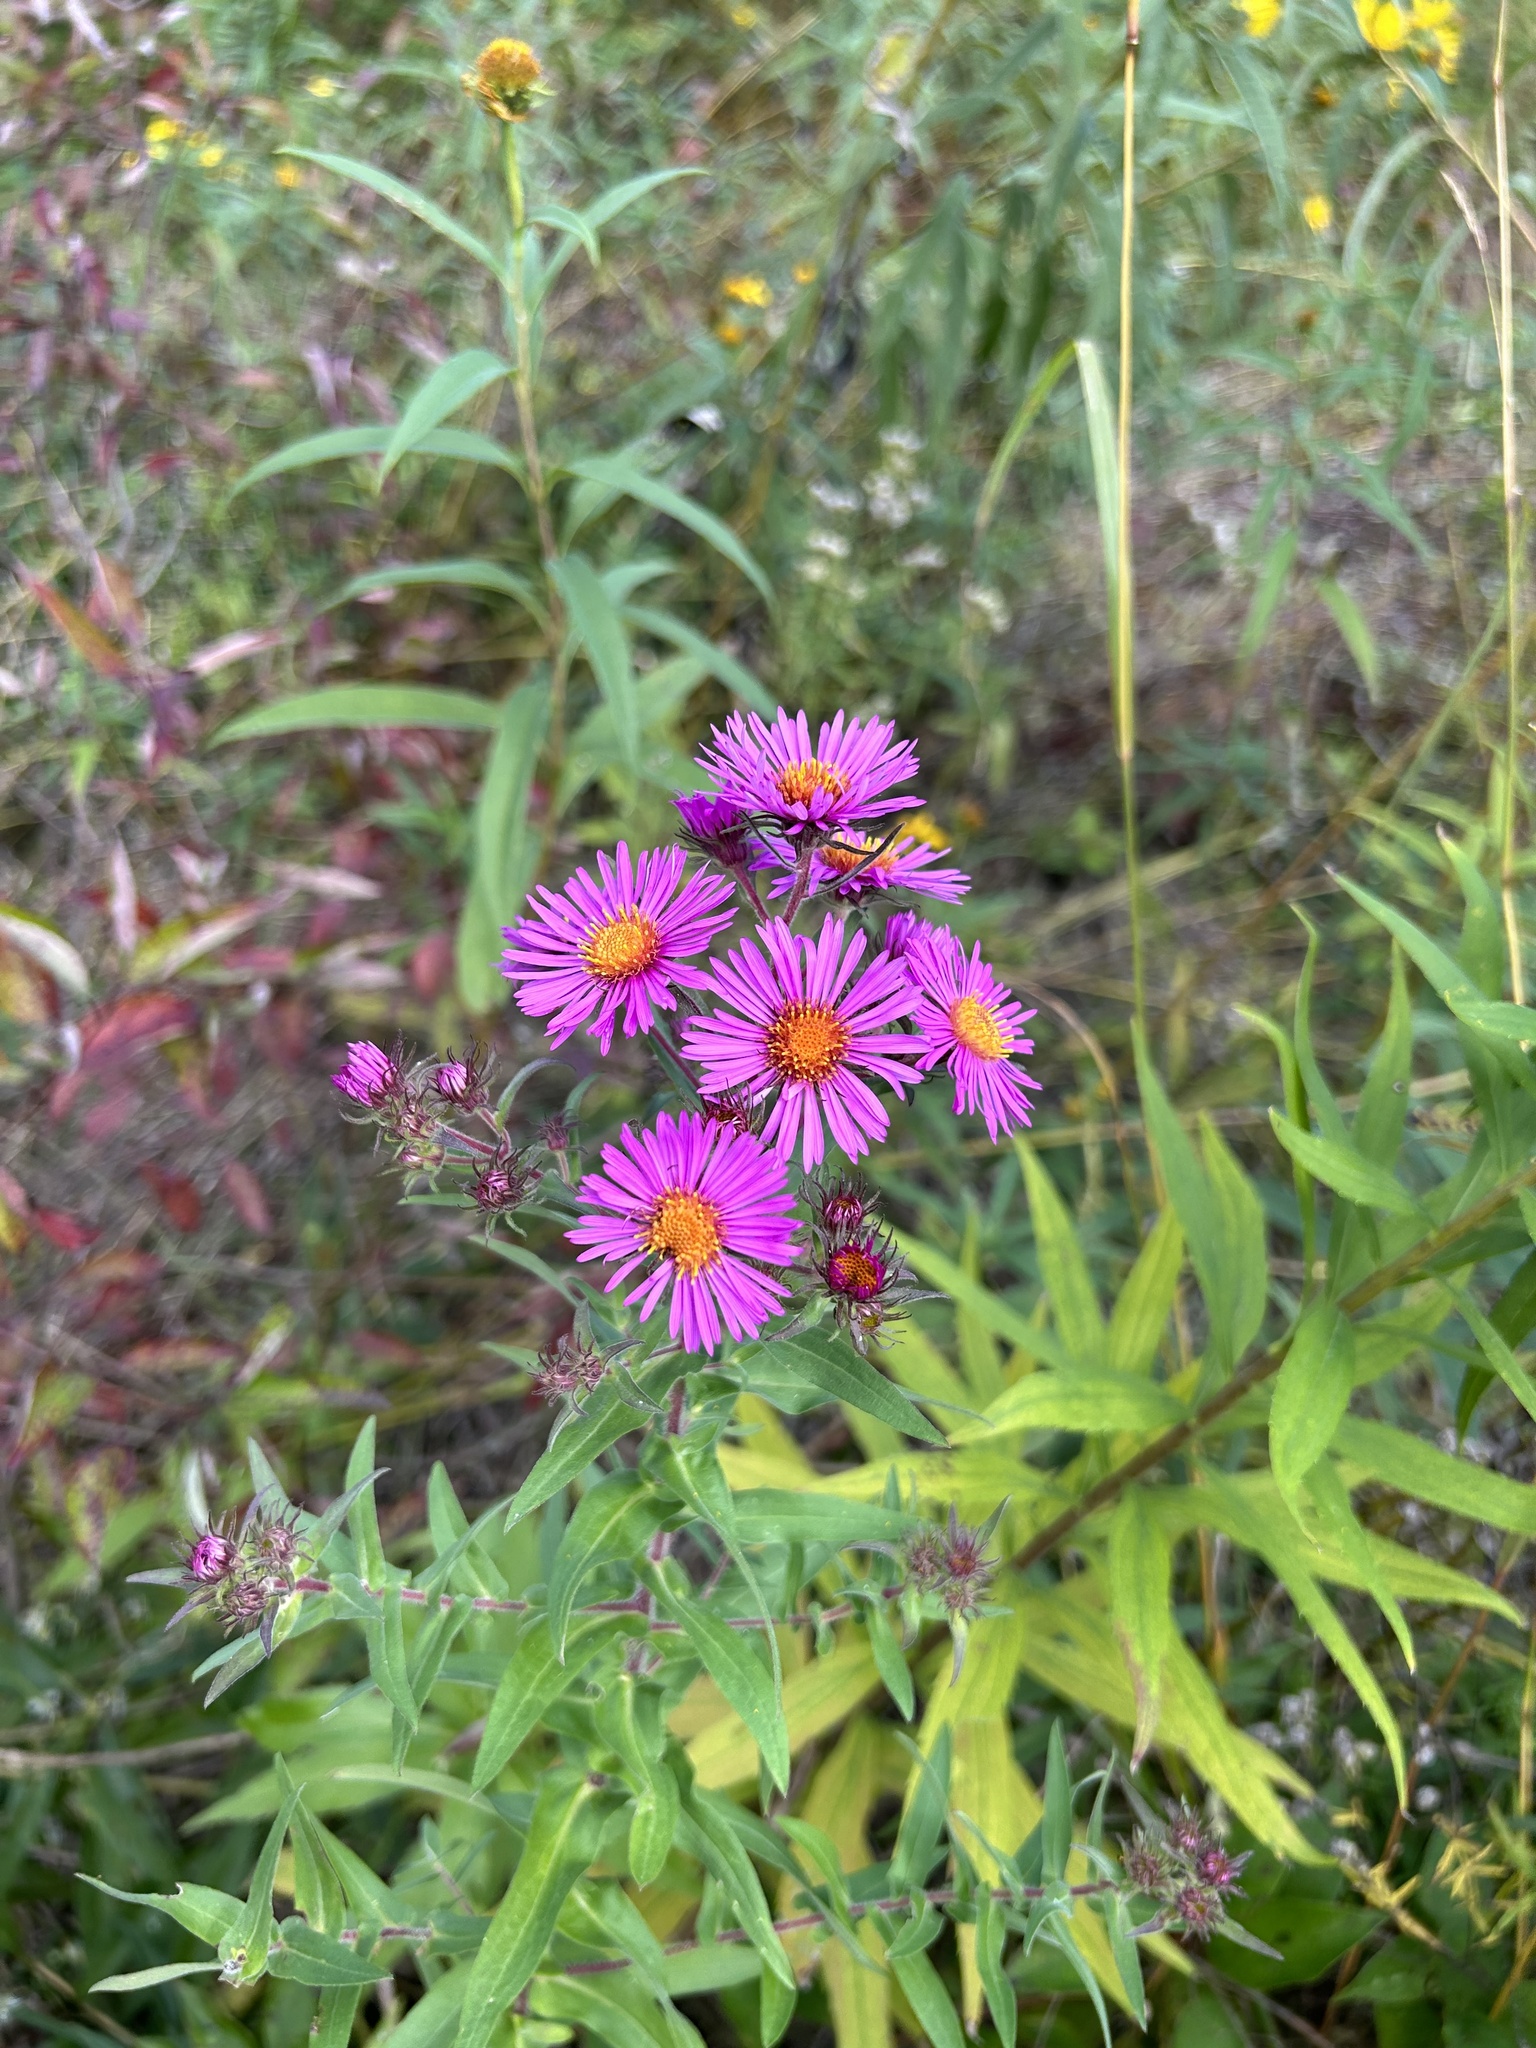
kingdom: Plantae
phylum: Tracheophyta
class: Magnoliopsida
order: Asterales
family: Asteraceae
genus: Symphyotrichum
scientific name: Symphyotrichum novae-angliae
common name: Michaelmas daisy
